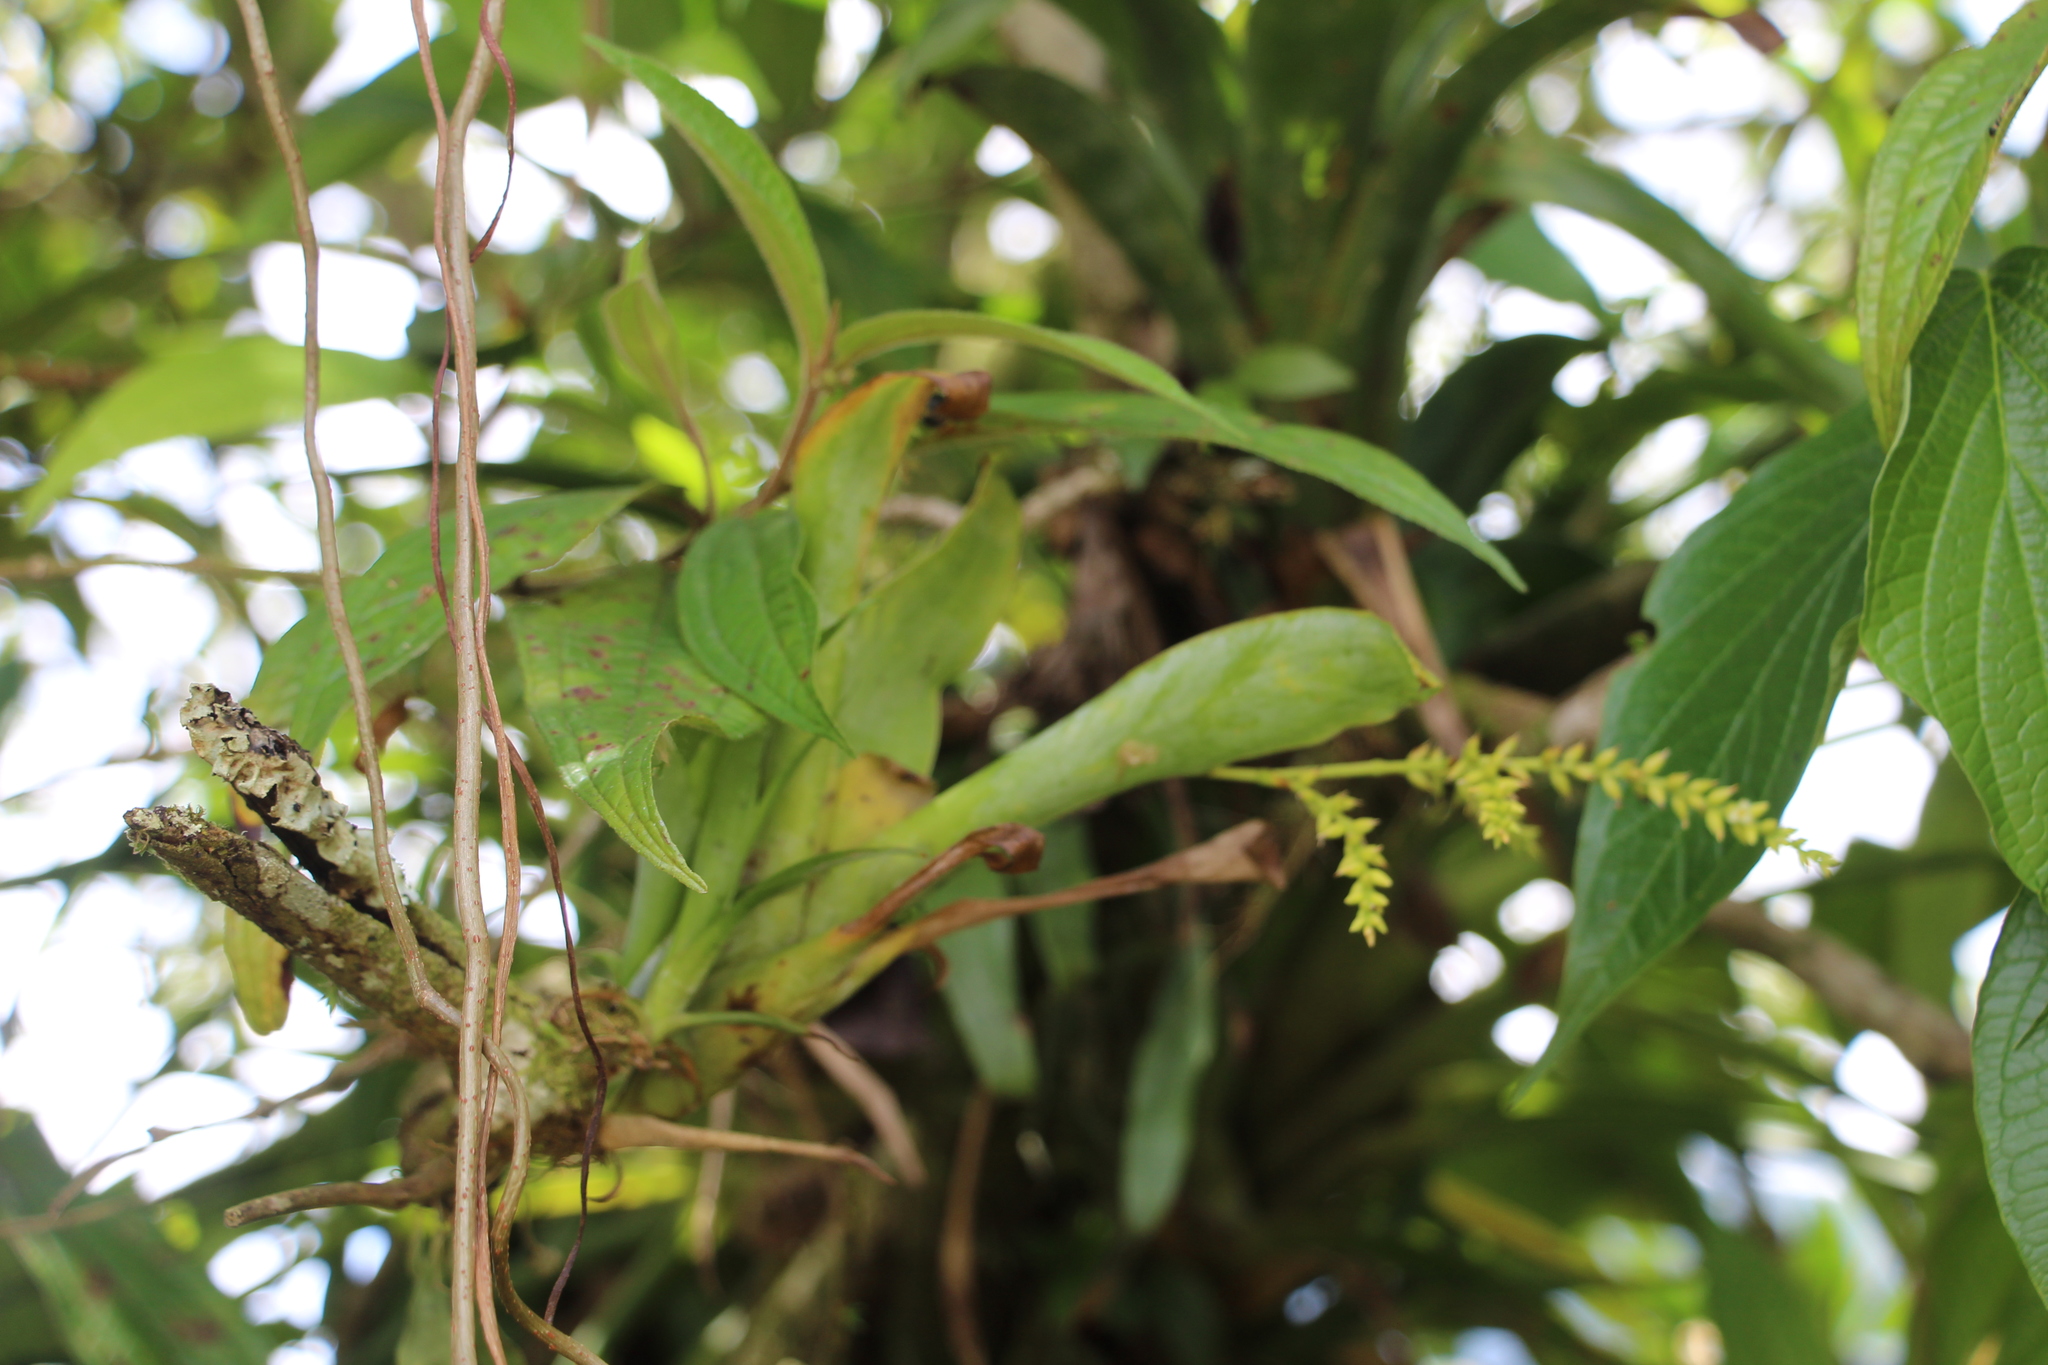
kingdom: Plantae
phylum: Tracheophyta
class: Liliopsida
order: Poales
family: Bromeliaceae
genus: Catopsis
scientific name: Catopsis sessiliflora
